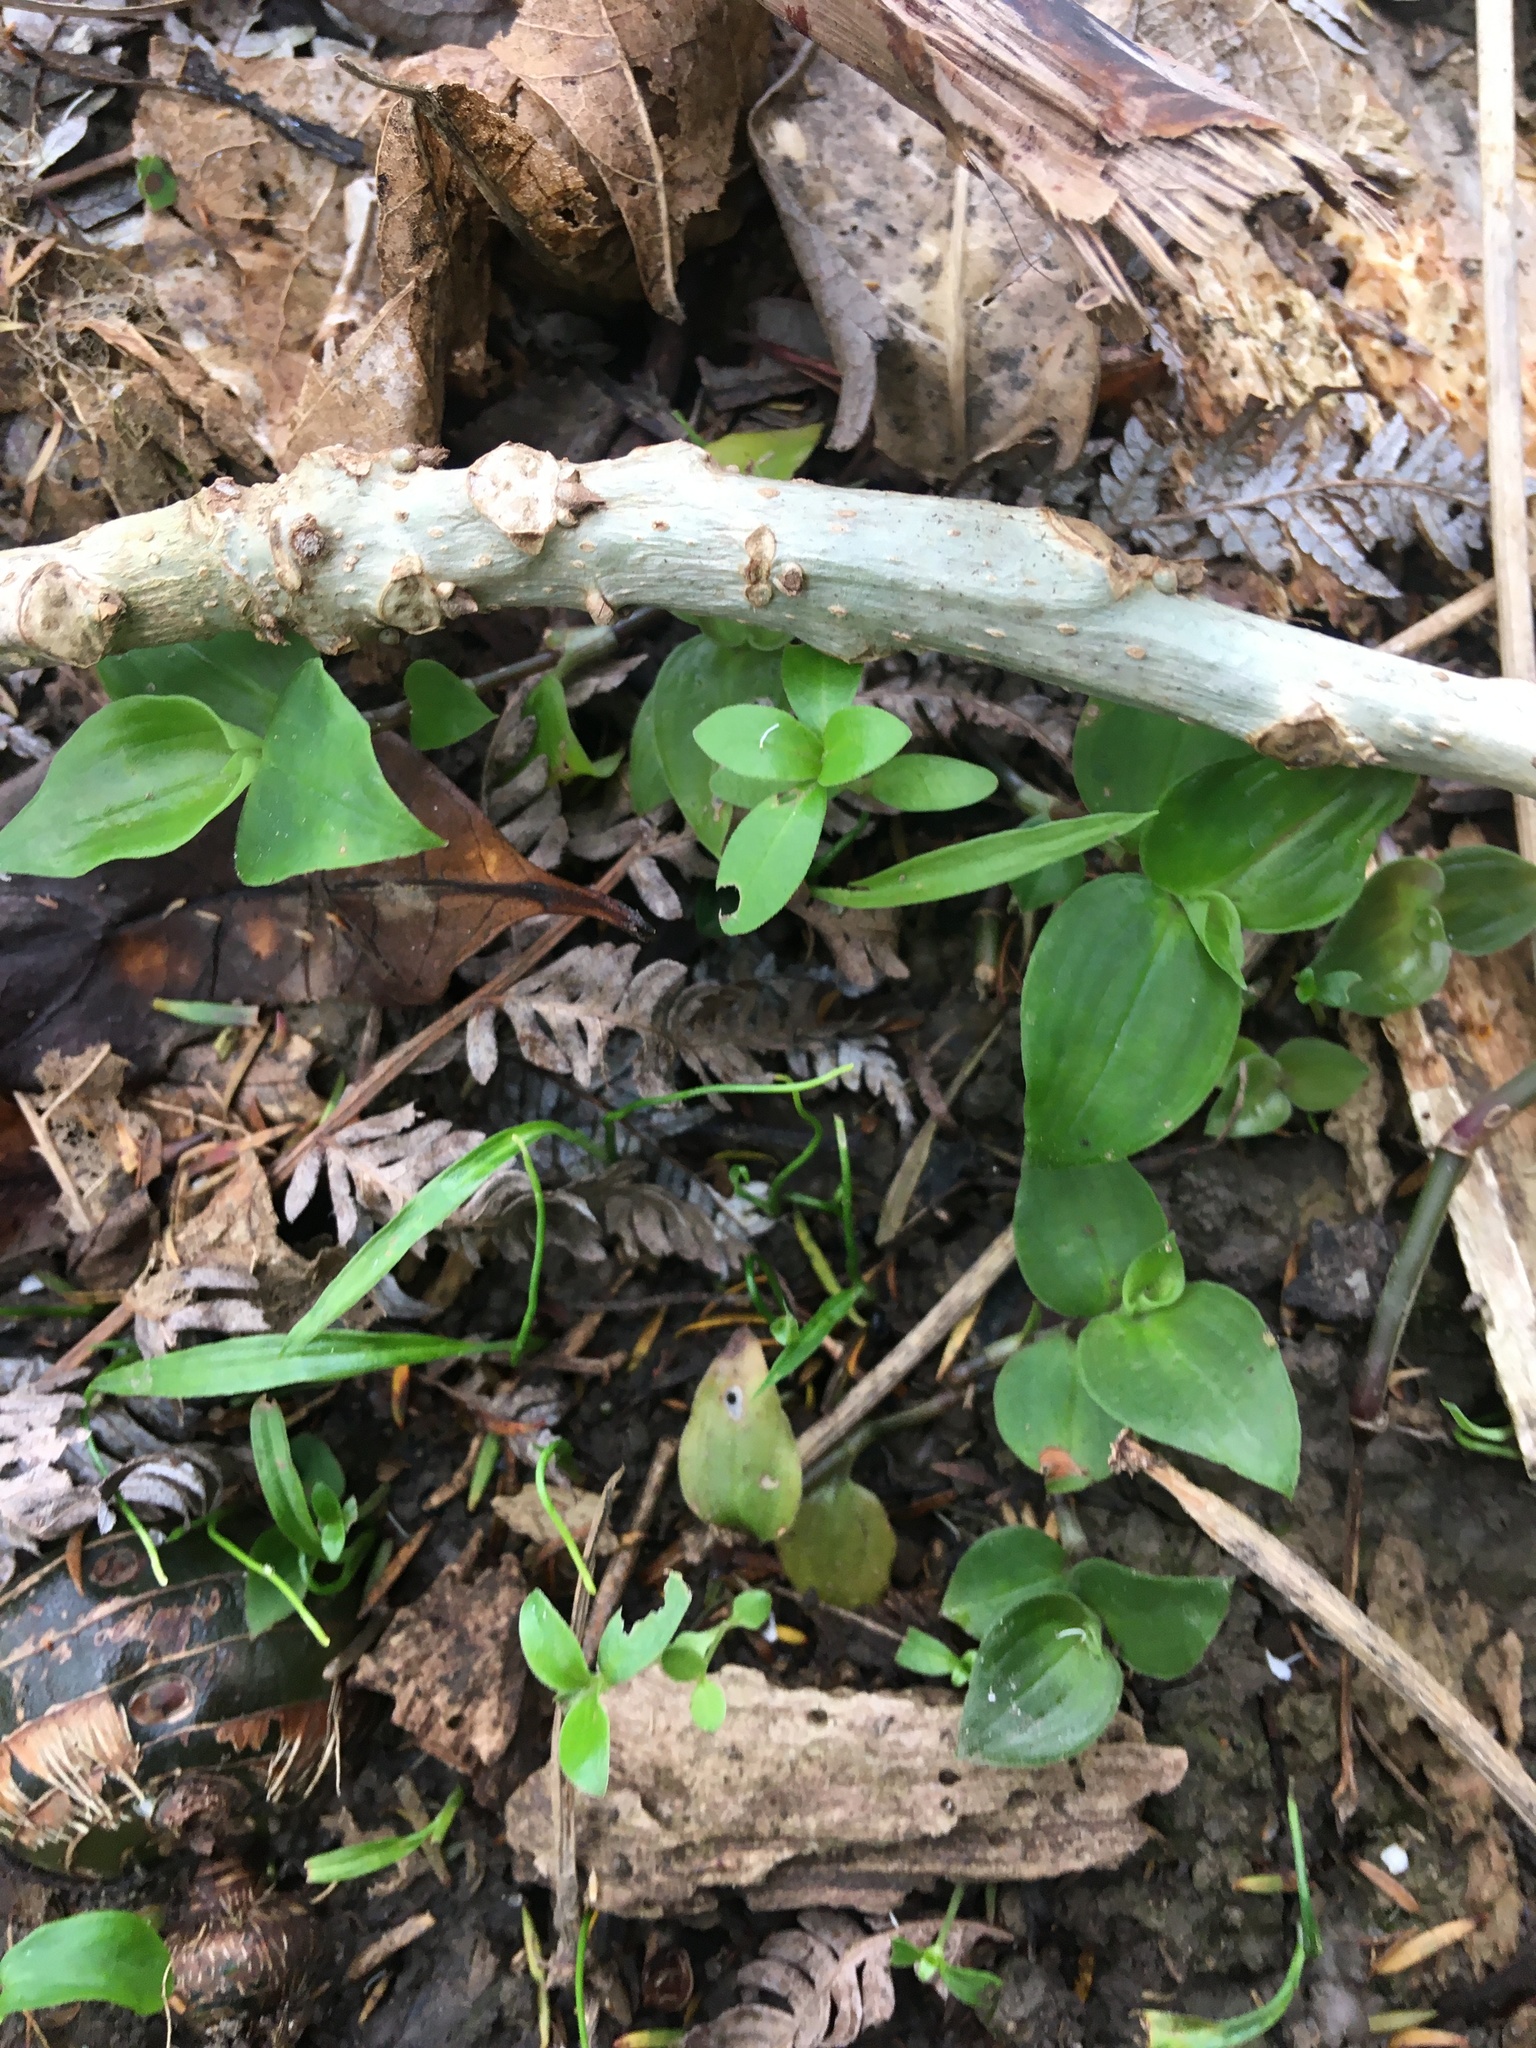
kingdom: Plantae
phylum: Tracheophyta
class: Magnoliopsida
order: Gentianales
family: Rubiaceae
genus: Coprosma
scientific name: Coprosma robusta
